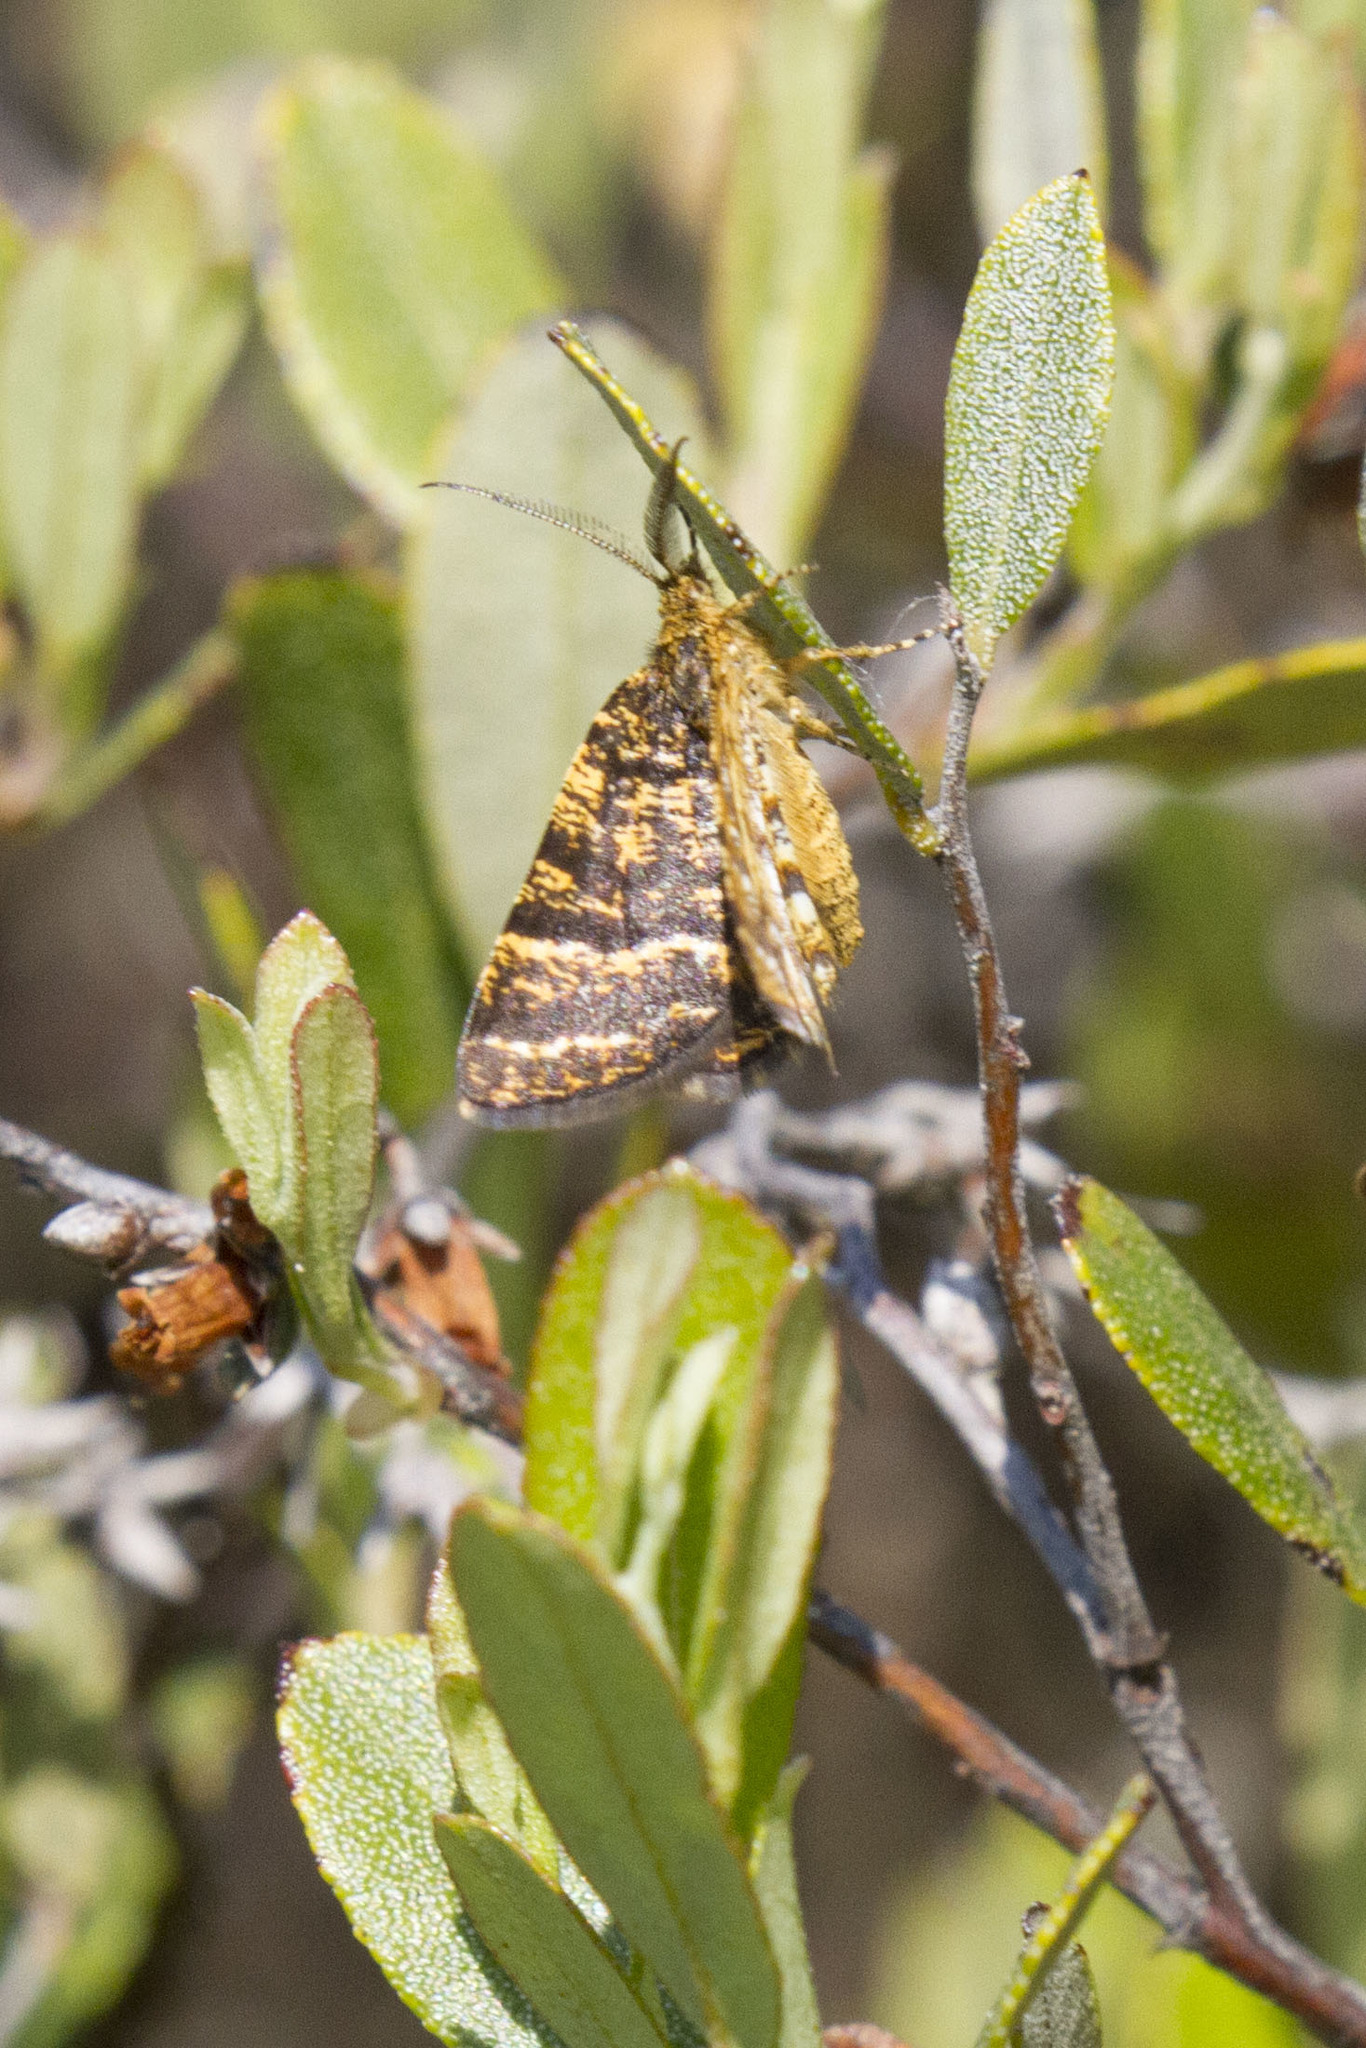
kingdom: Animalia
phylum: Arthropoda
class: Insecta
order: Lepidoptera
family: Geometridae
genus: Macaria
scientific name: Macaria truncataria
